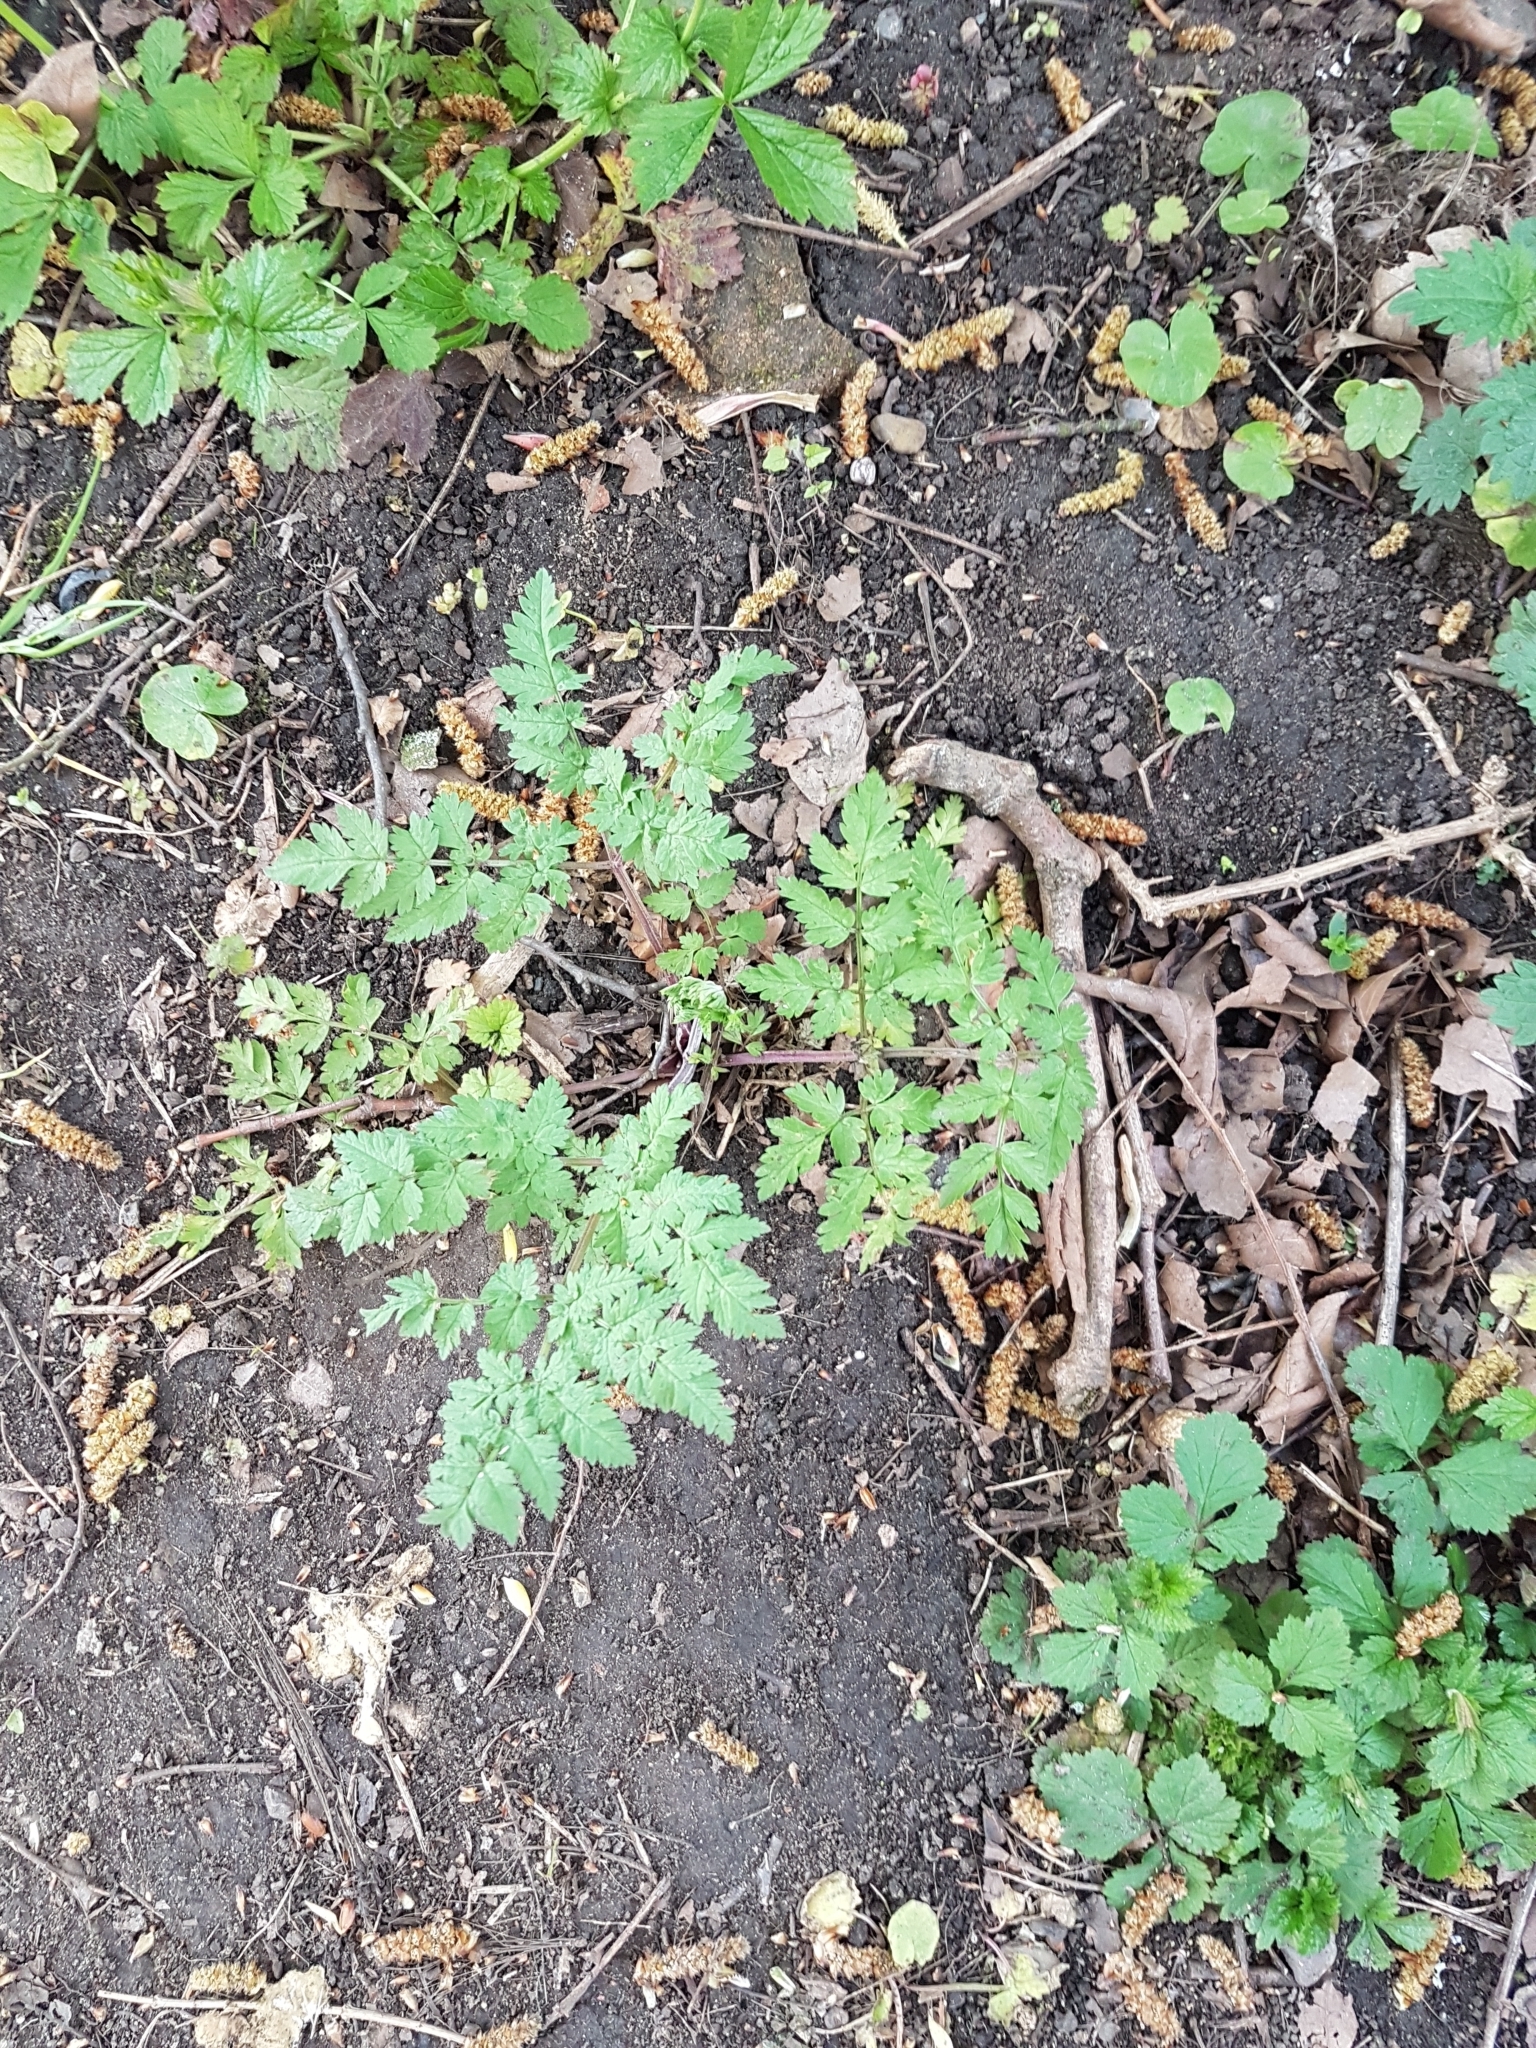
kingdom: Plantae
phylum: Tracheophyta
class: Magnoliopsida
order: Apiales
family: Apiaceae
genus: Anthriscus
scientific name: Anthriscus sylvestris
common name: Cow parsley
